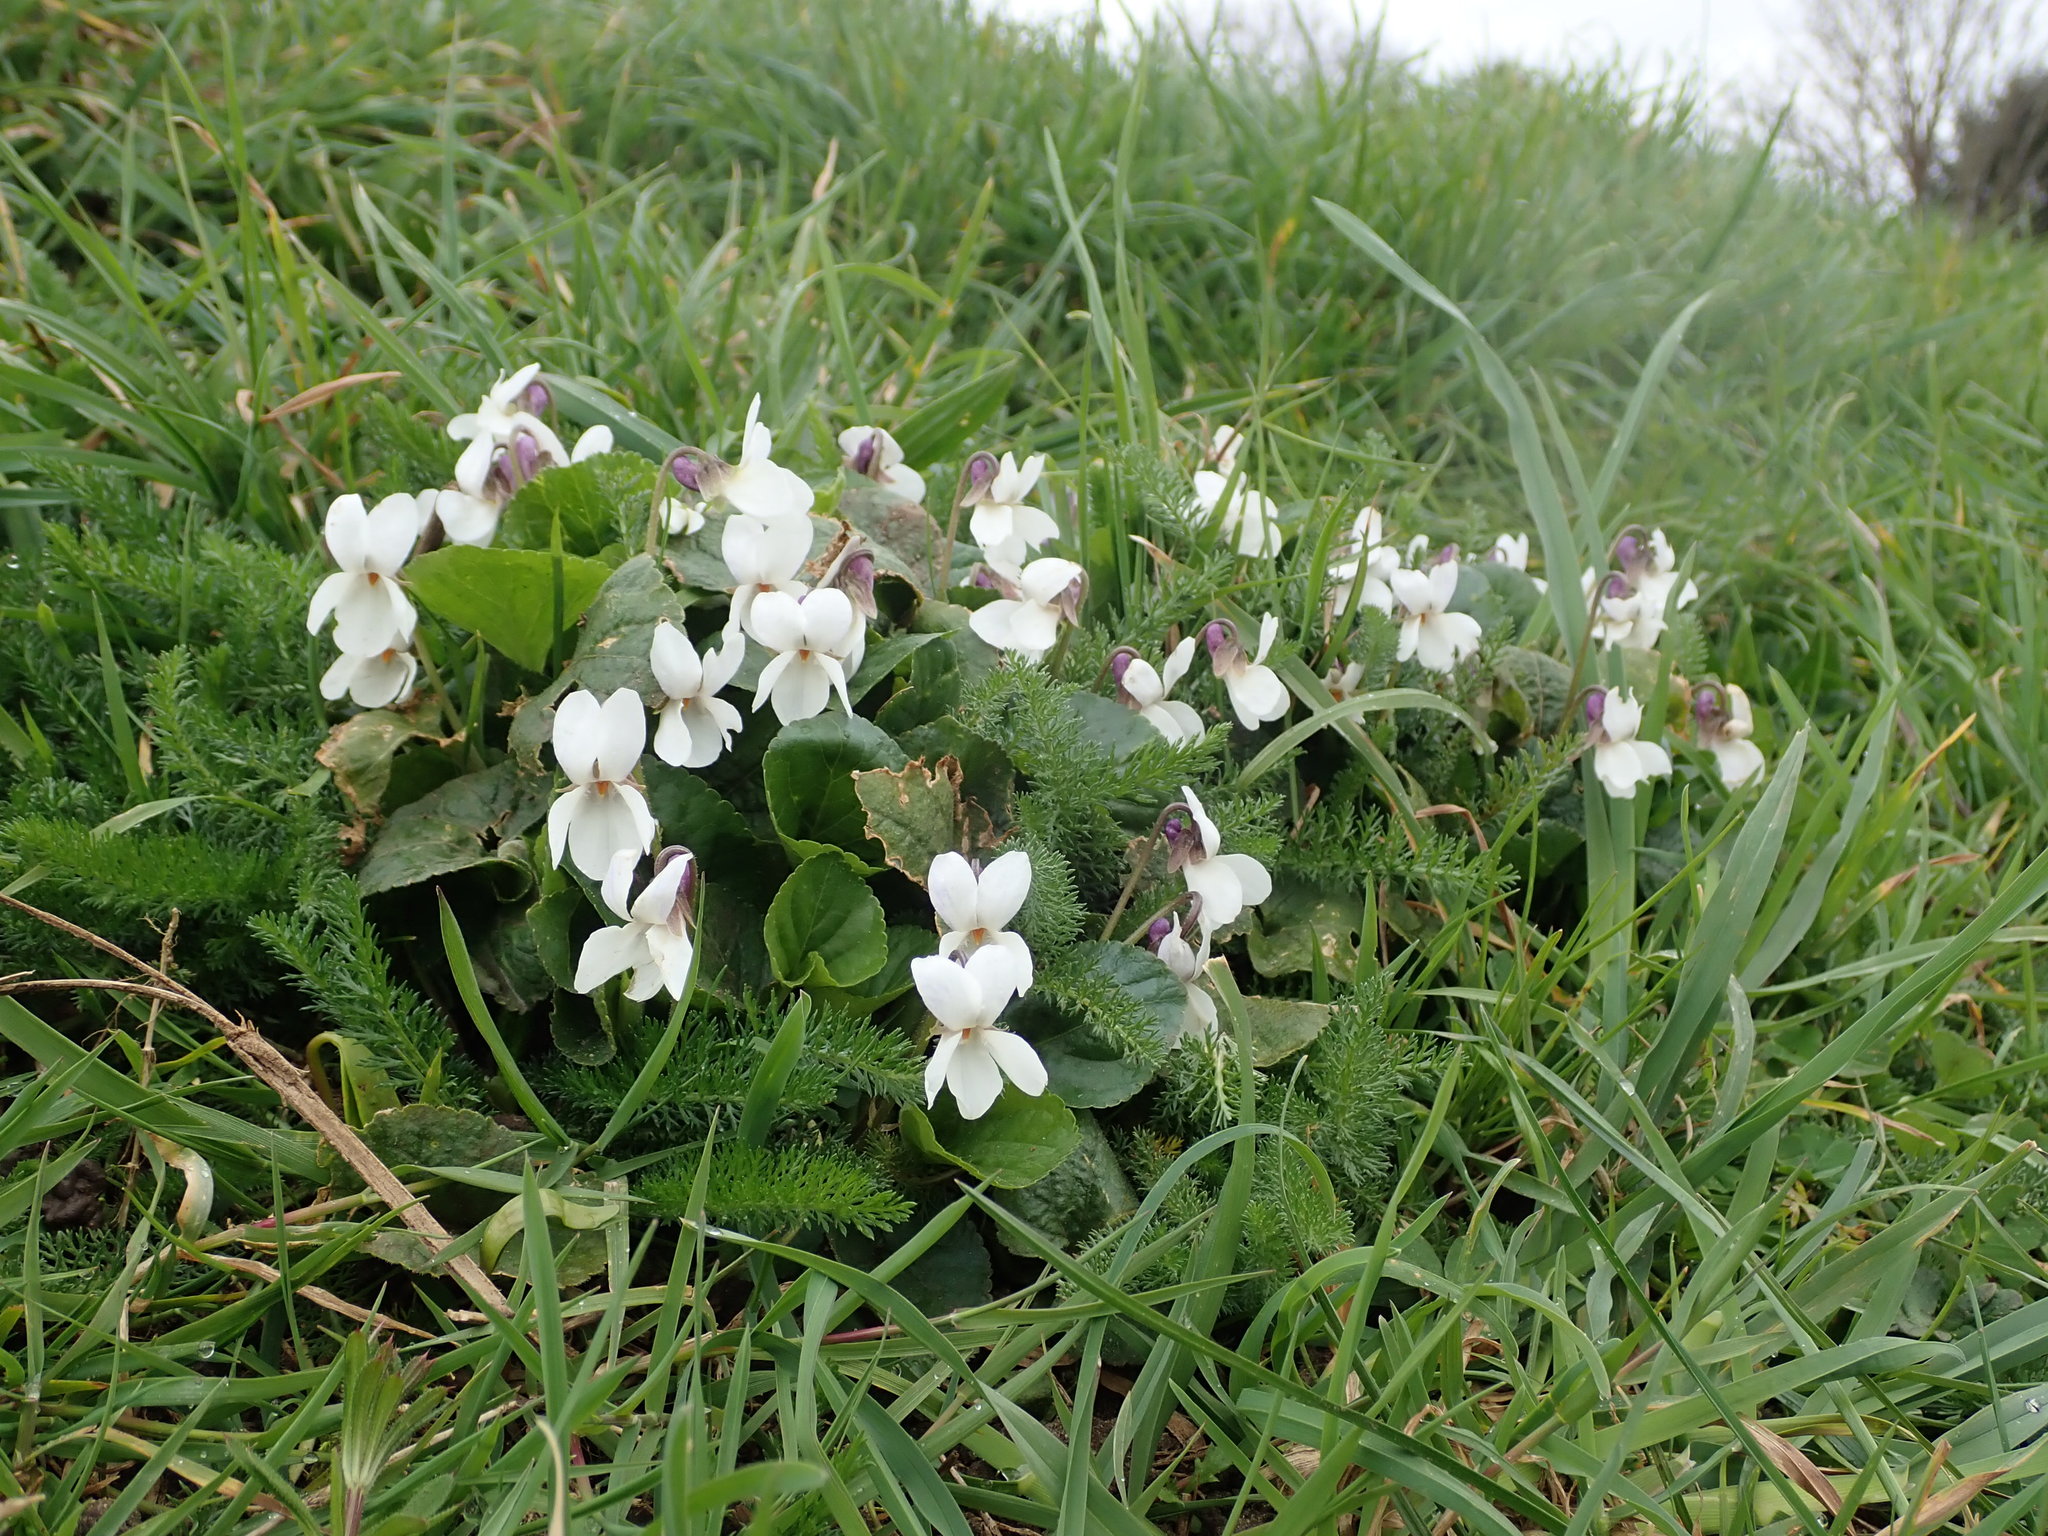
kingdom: Plantae
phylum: Tracheophyta
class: Magnoliopsida
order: Malpighiales
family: Violaceae
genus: Viola
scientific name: Viola odorata
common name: Sweet violet
